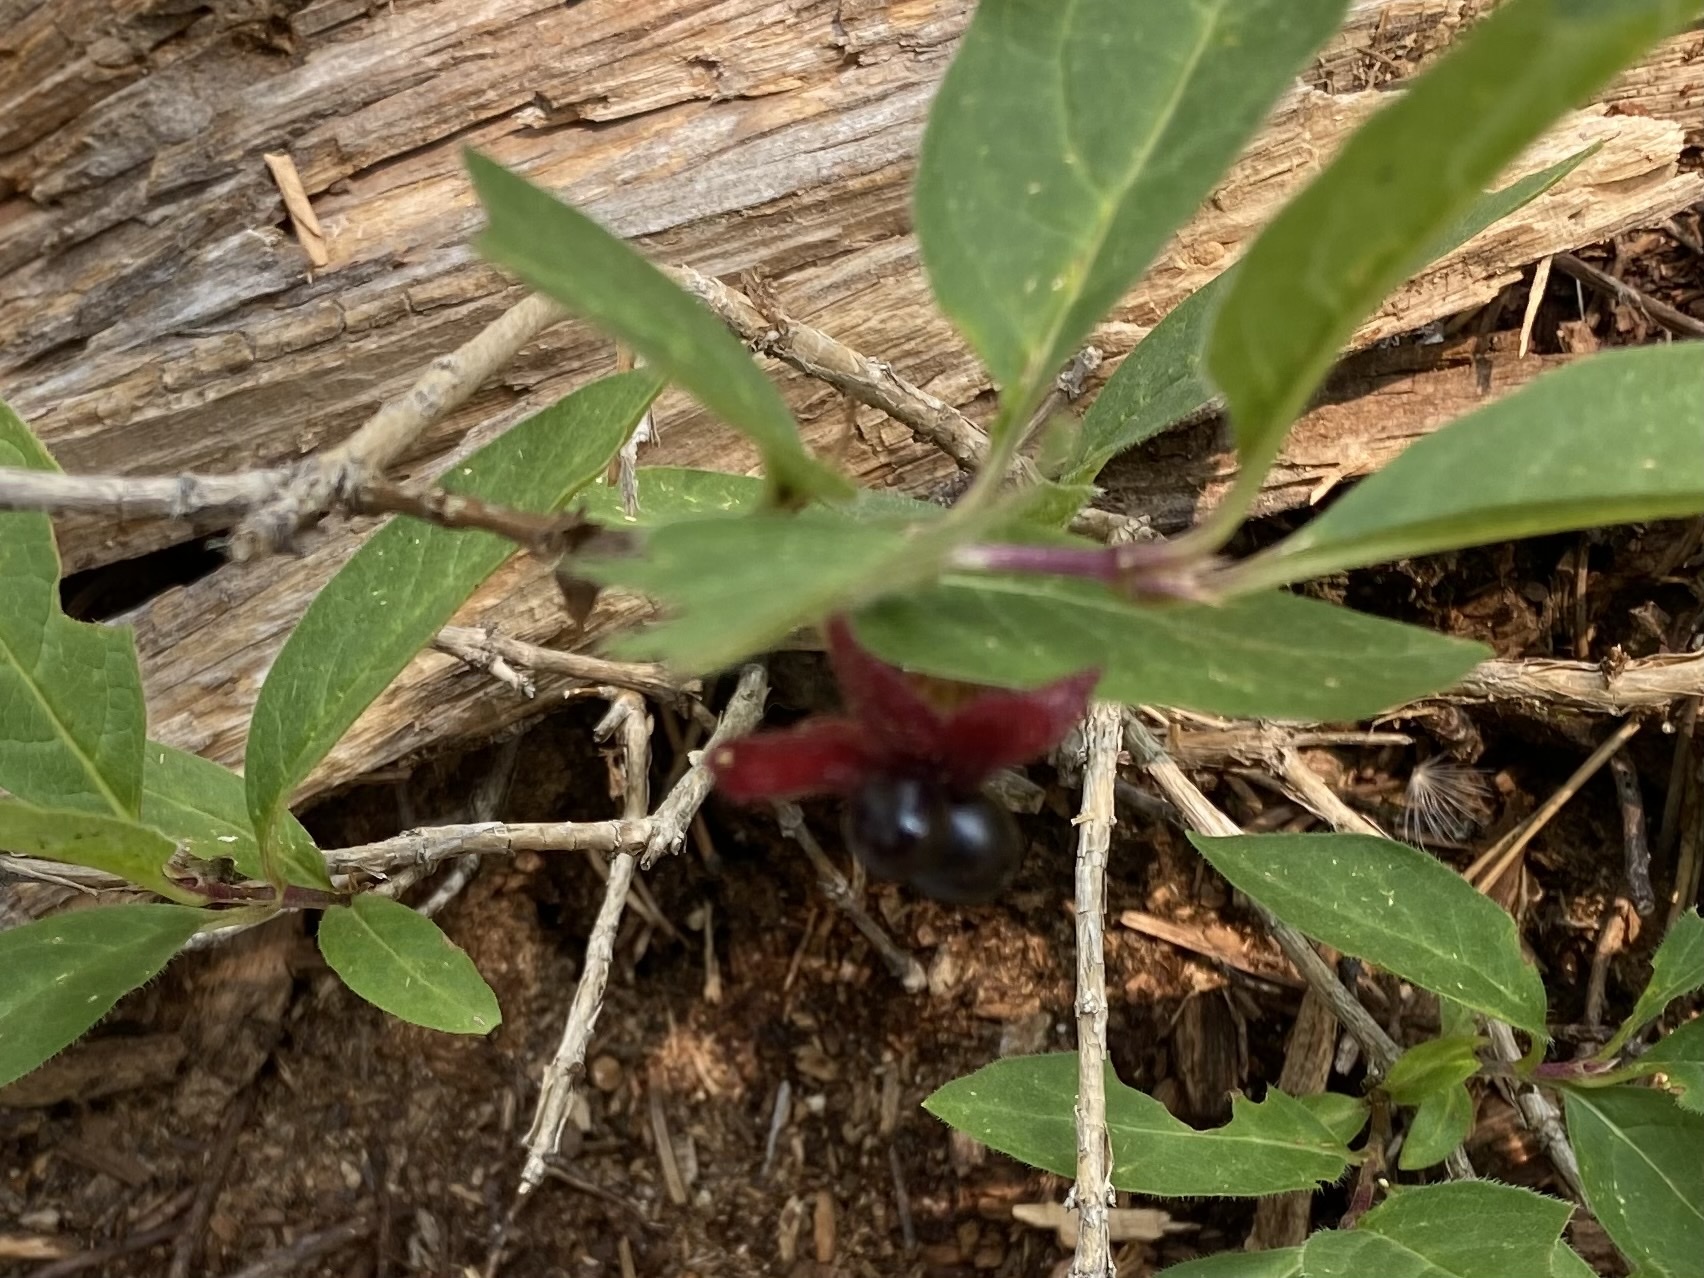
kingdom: Plantae
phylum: Tracheophyta
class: Magnoliopsida
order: Dipsacales
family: Caprifoliaceae
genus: Lonicera
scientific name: Lonicera involucrata
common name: Californian honeysuckle
